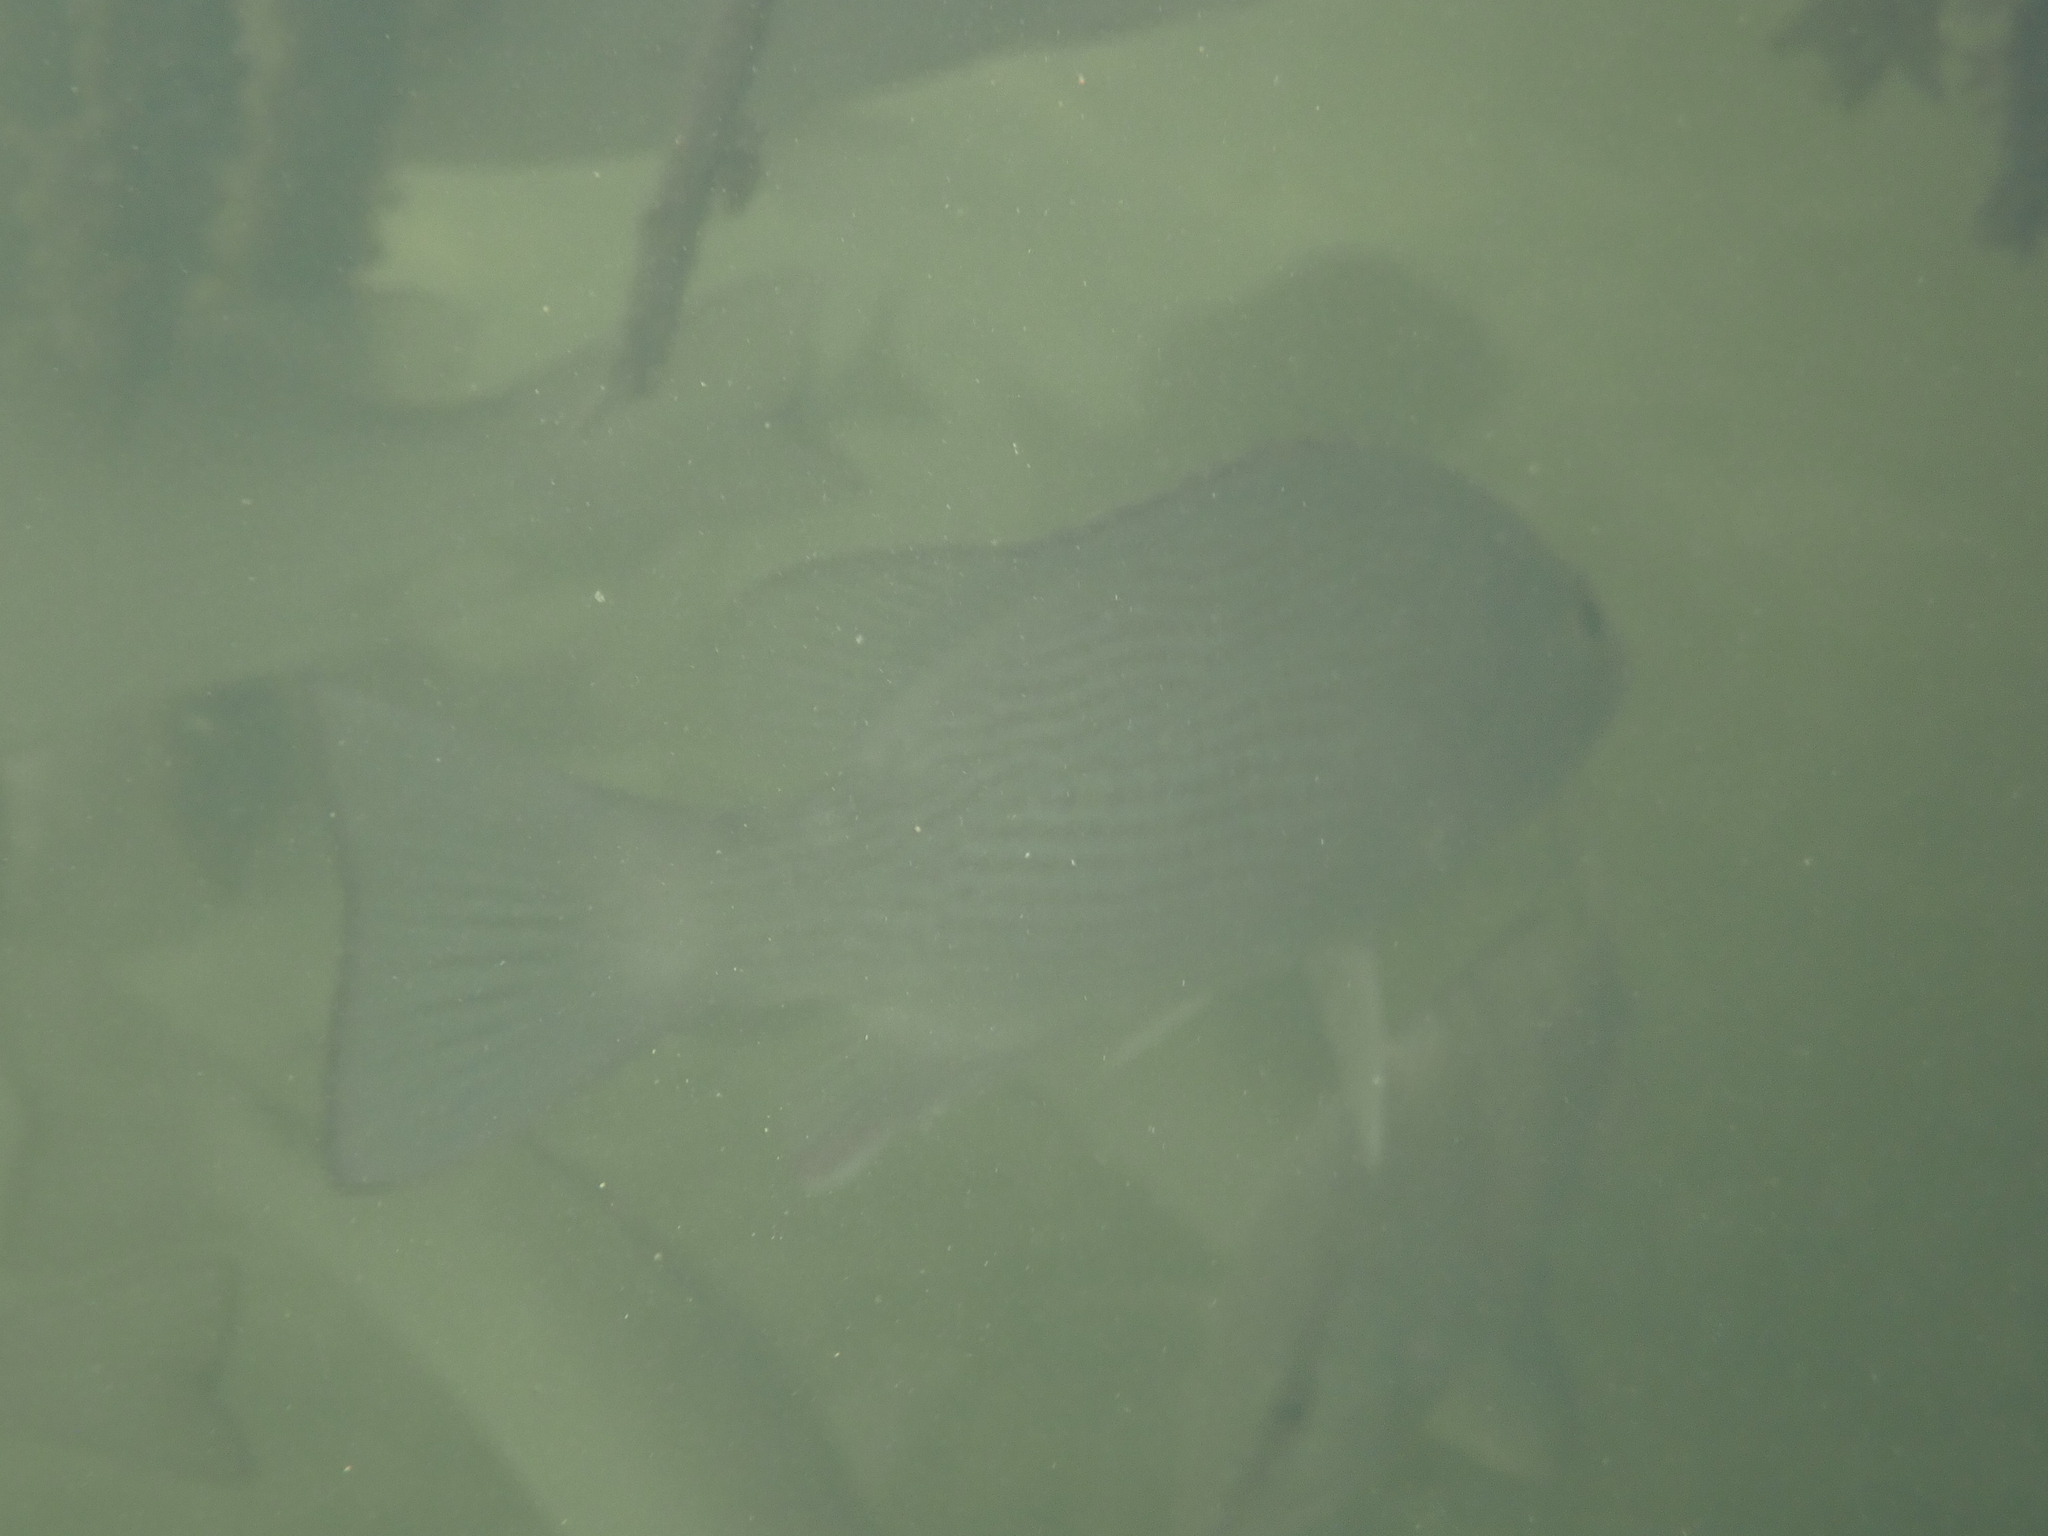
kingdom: Animalia
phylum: Chordata
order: Perciformes
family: Lutjanidae
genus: Lutjanus
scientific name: Lutjanus griseus
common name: Gray snapper
